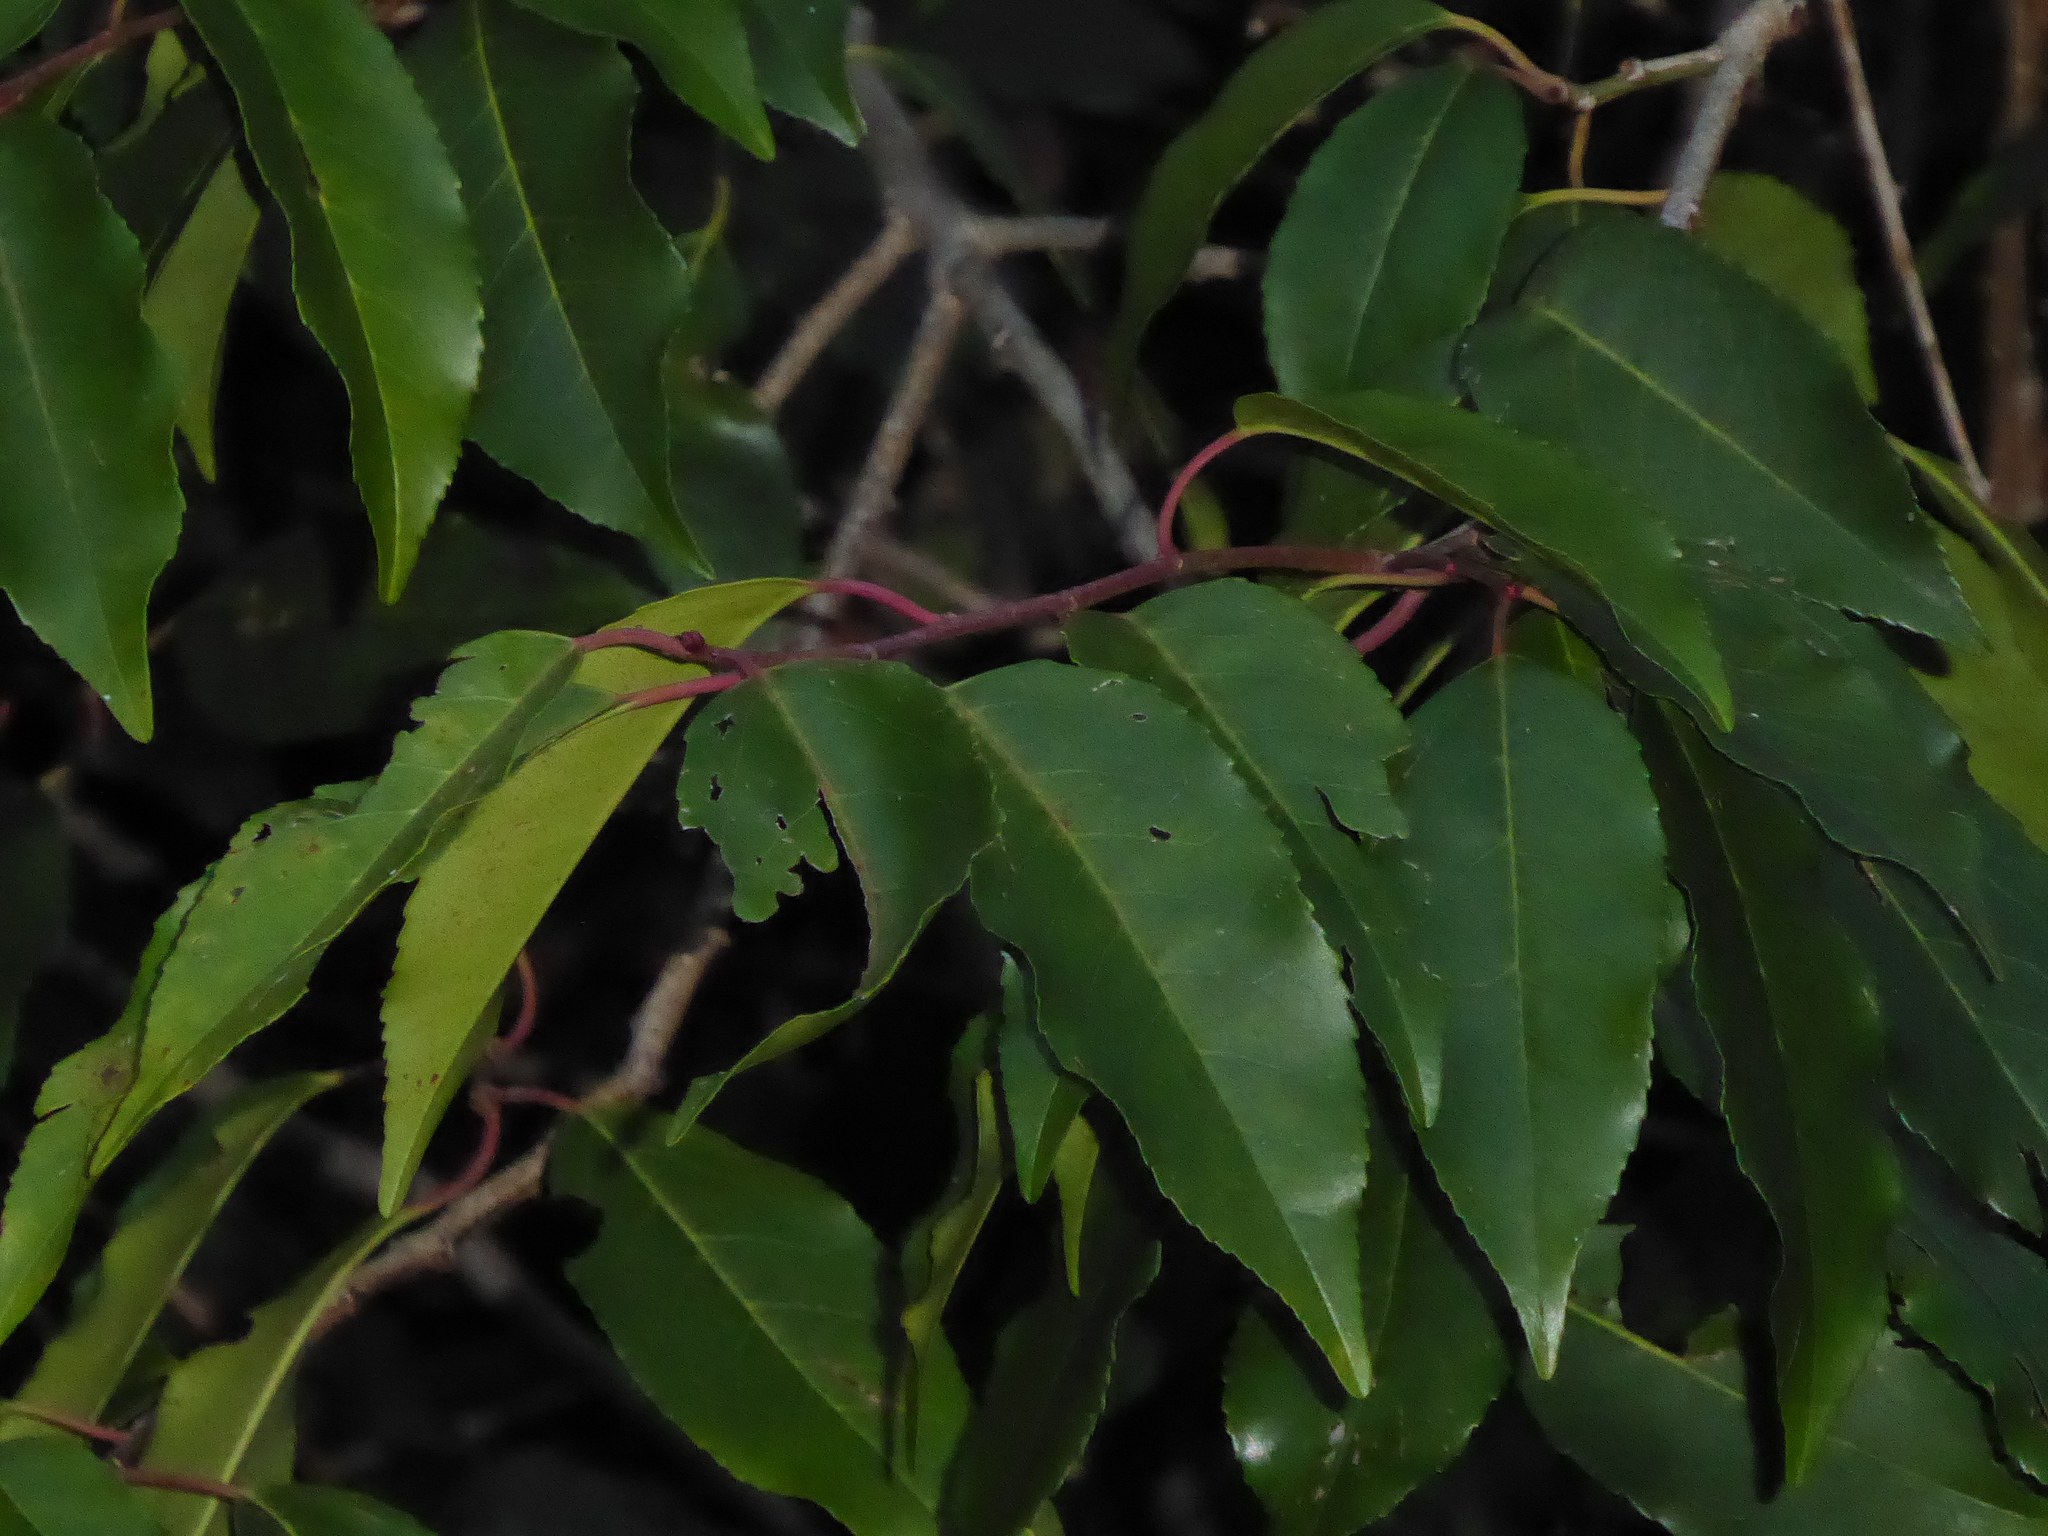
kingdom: Plantae
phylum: Tracheophyta
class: Magnoliopsida
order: Rosales
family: Rosaceae
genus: Prunus
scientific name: Prunus lusitanica
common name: Portugal laurel
